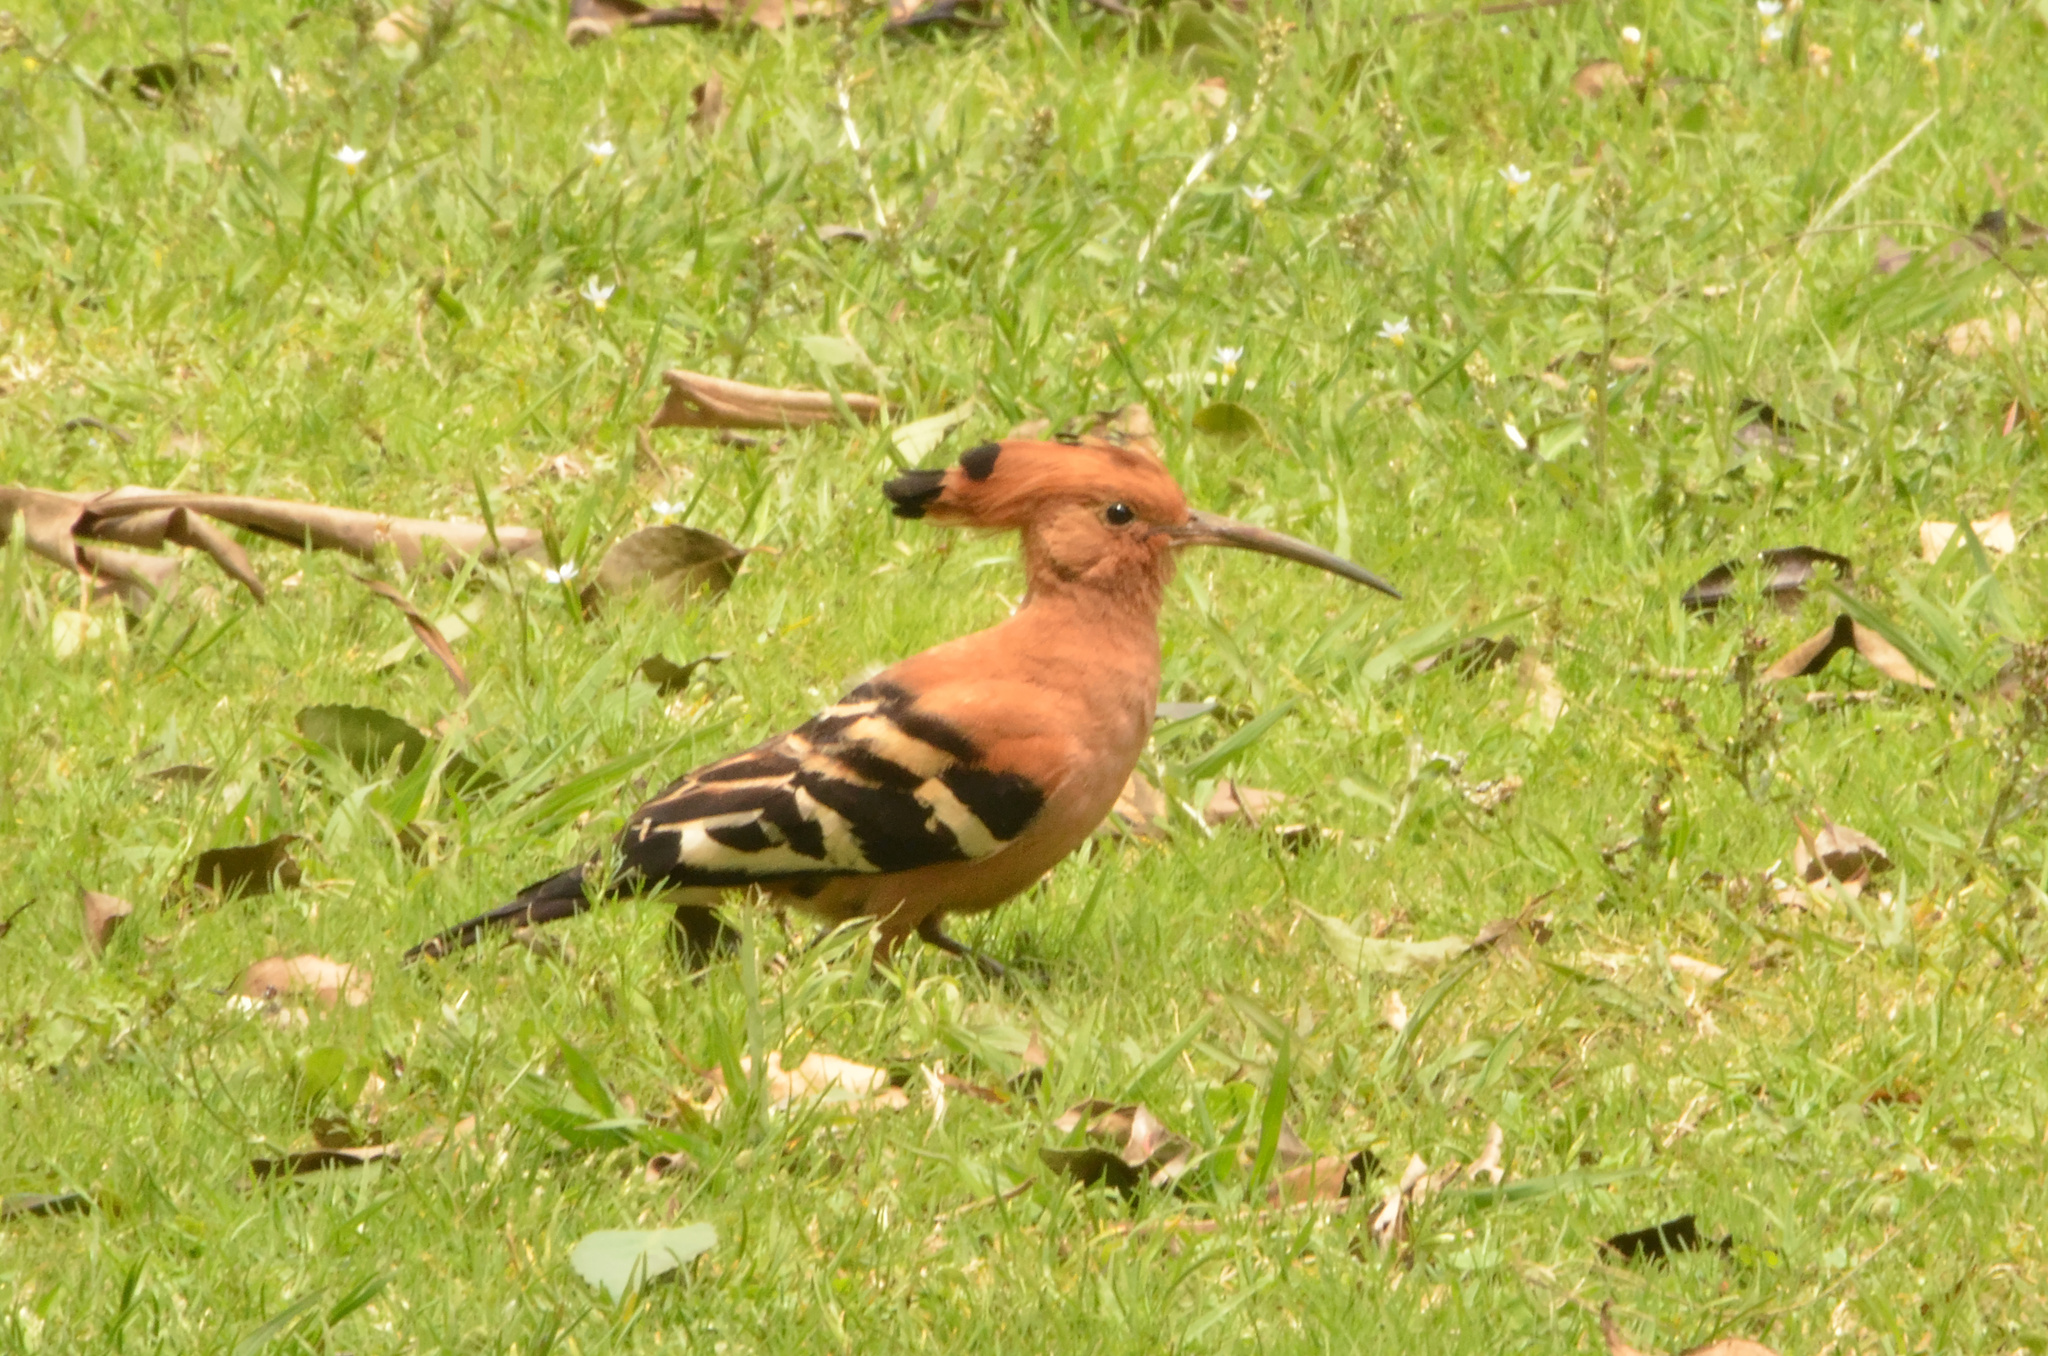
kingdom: Animalia
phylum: Chordata
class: Aves
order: Bucerotiformes
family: Upupidae
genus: Upupa
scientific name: Upupa africana
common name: African hoopoe
